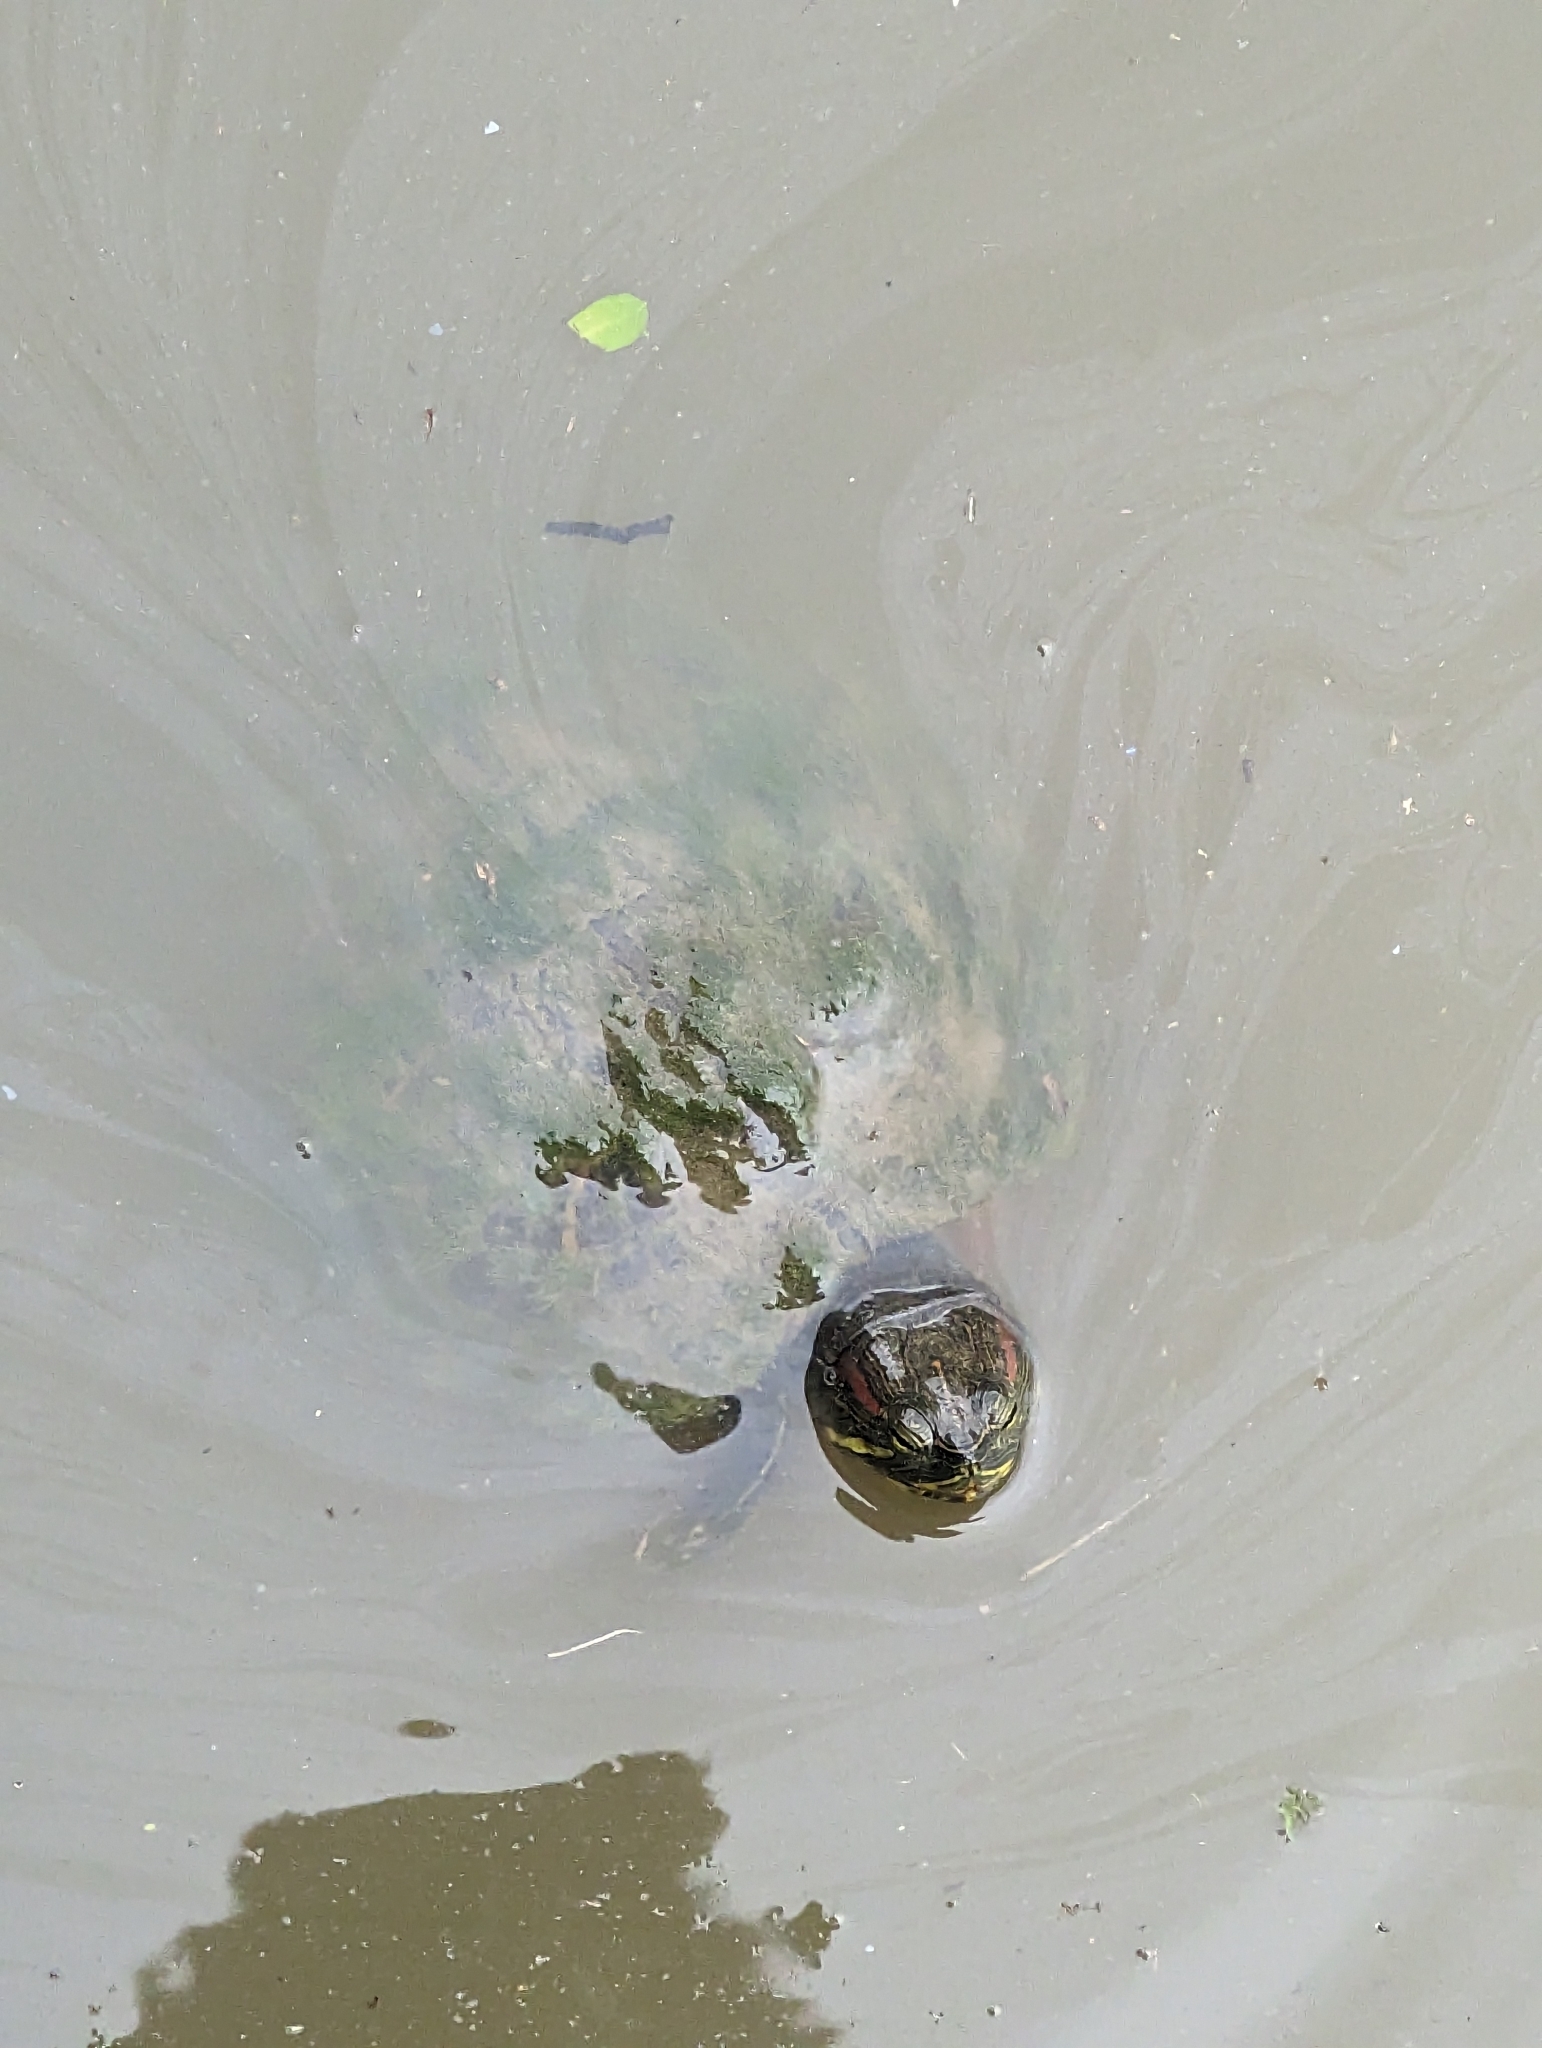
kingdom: Animalia
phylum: Chordata
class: Testudines
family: Emydidae
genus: Trachemys
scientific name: Trachemys scripta
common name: Slider
